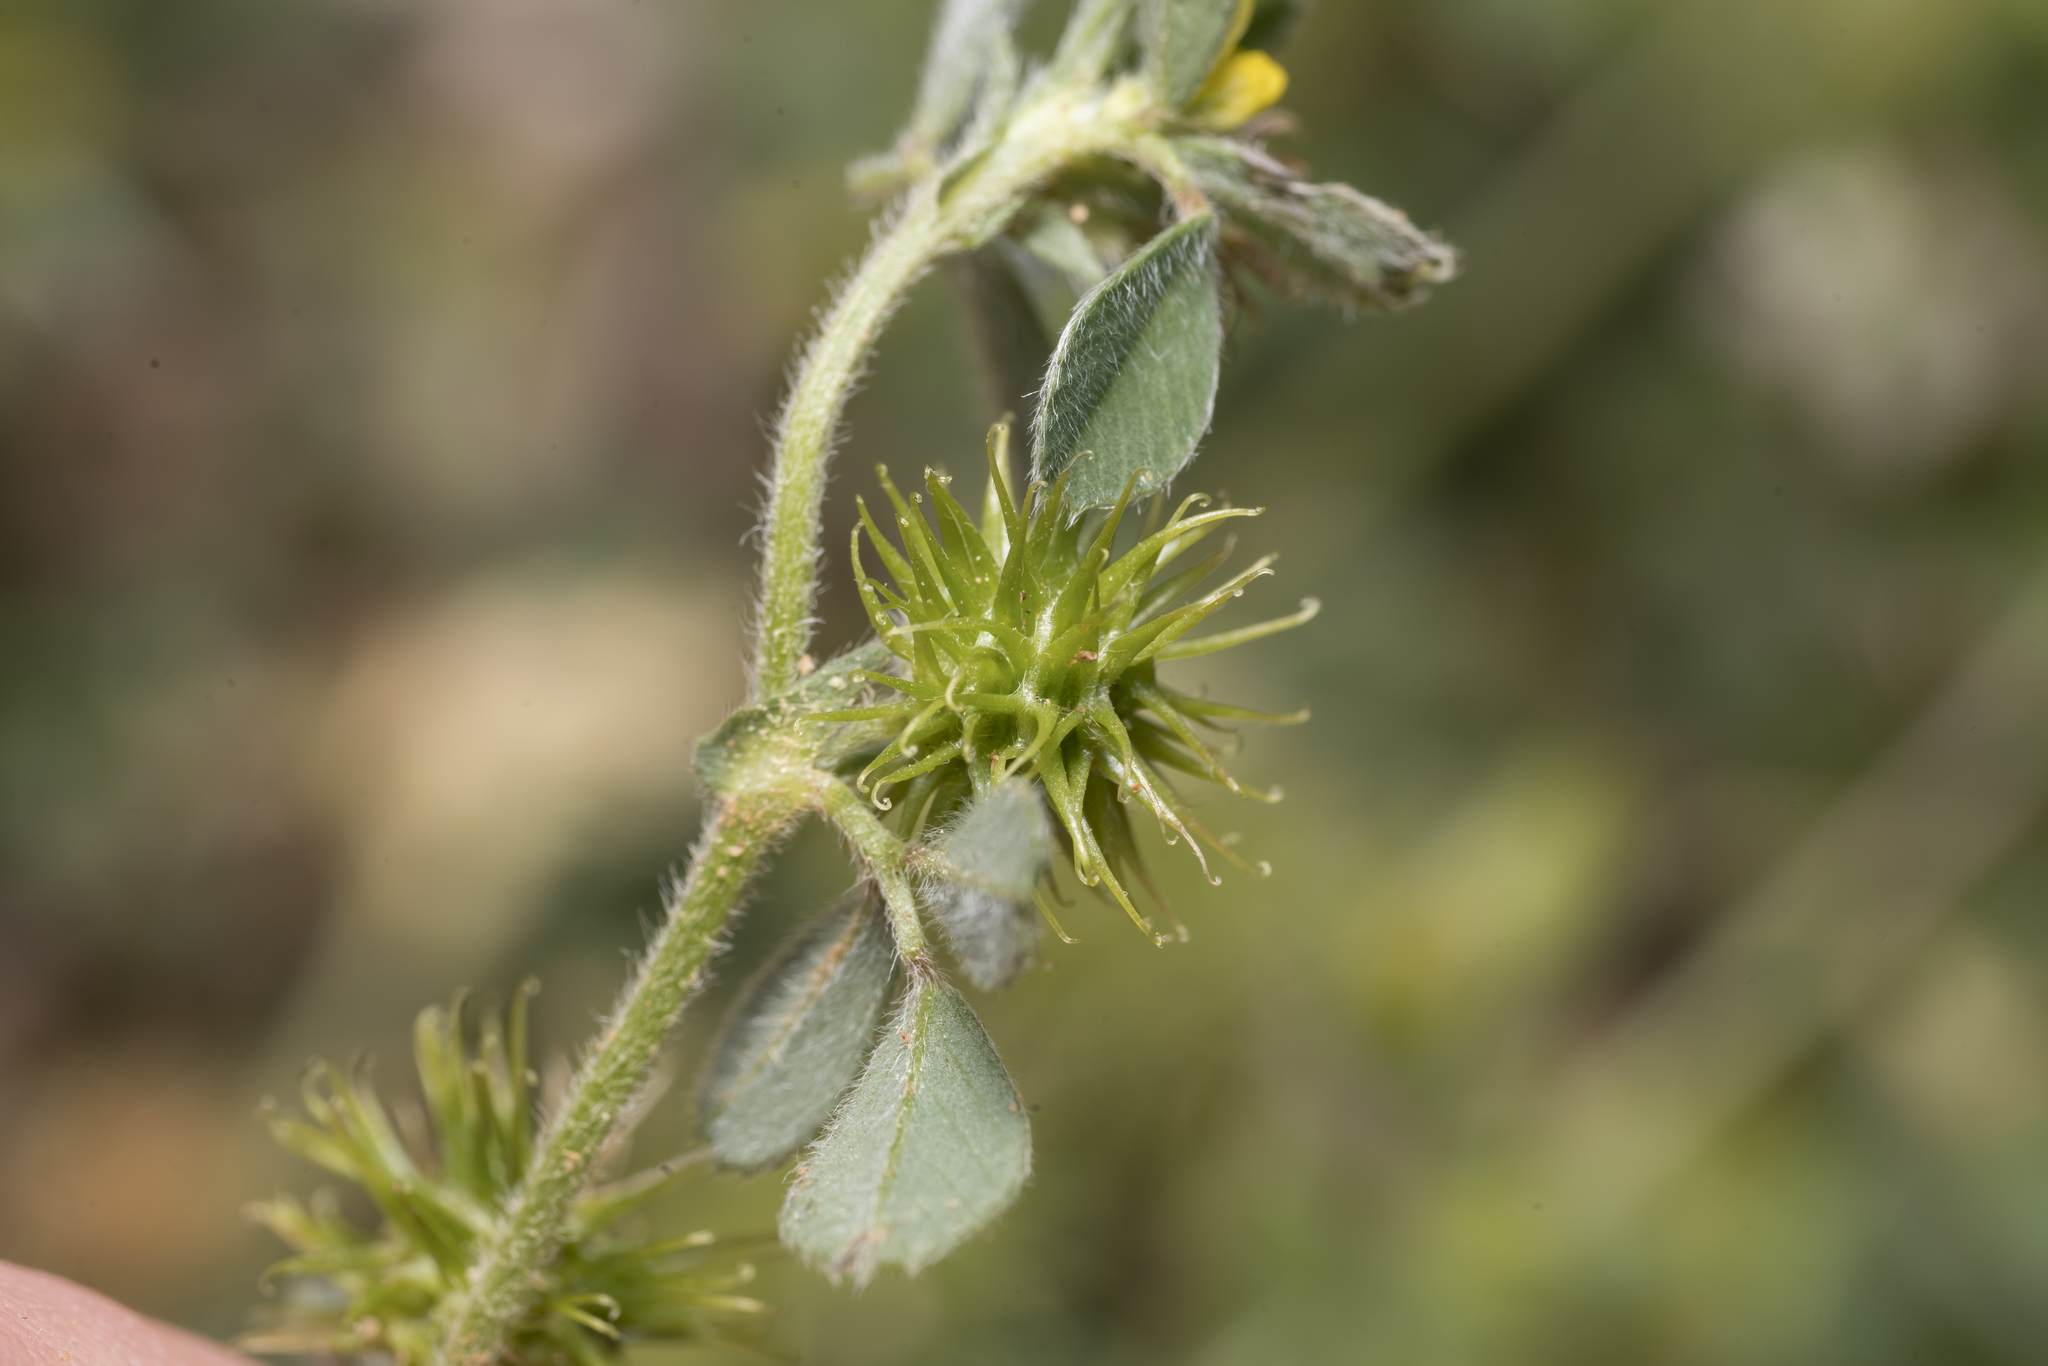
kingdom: Plantae
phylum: Tracheophyta
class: Magnoliopsida
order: Fabales
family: Fabaceae
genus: Medicago
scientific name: Medicago minima
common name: Little bur-clover
